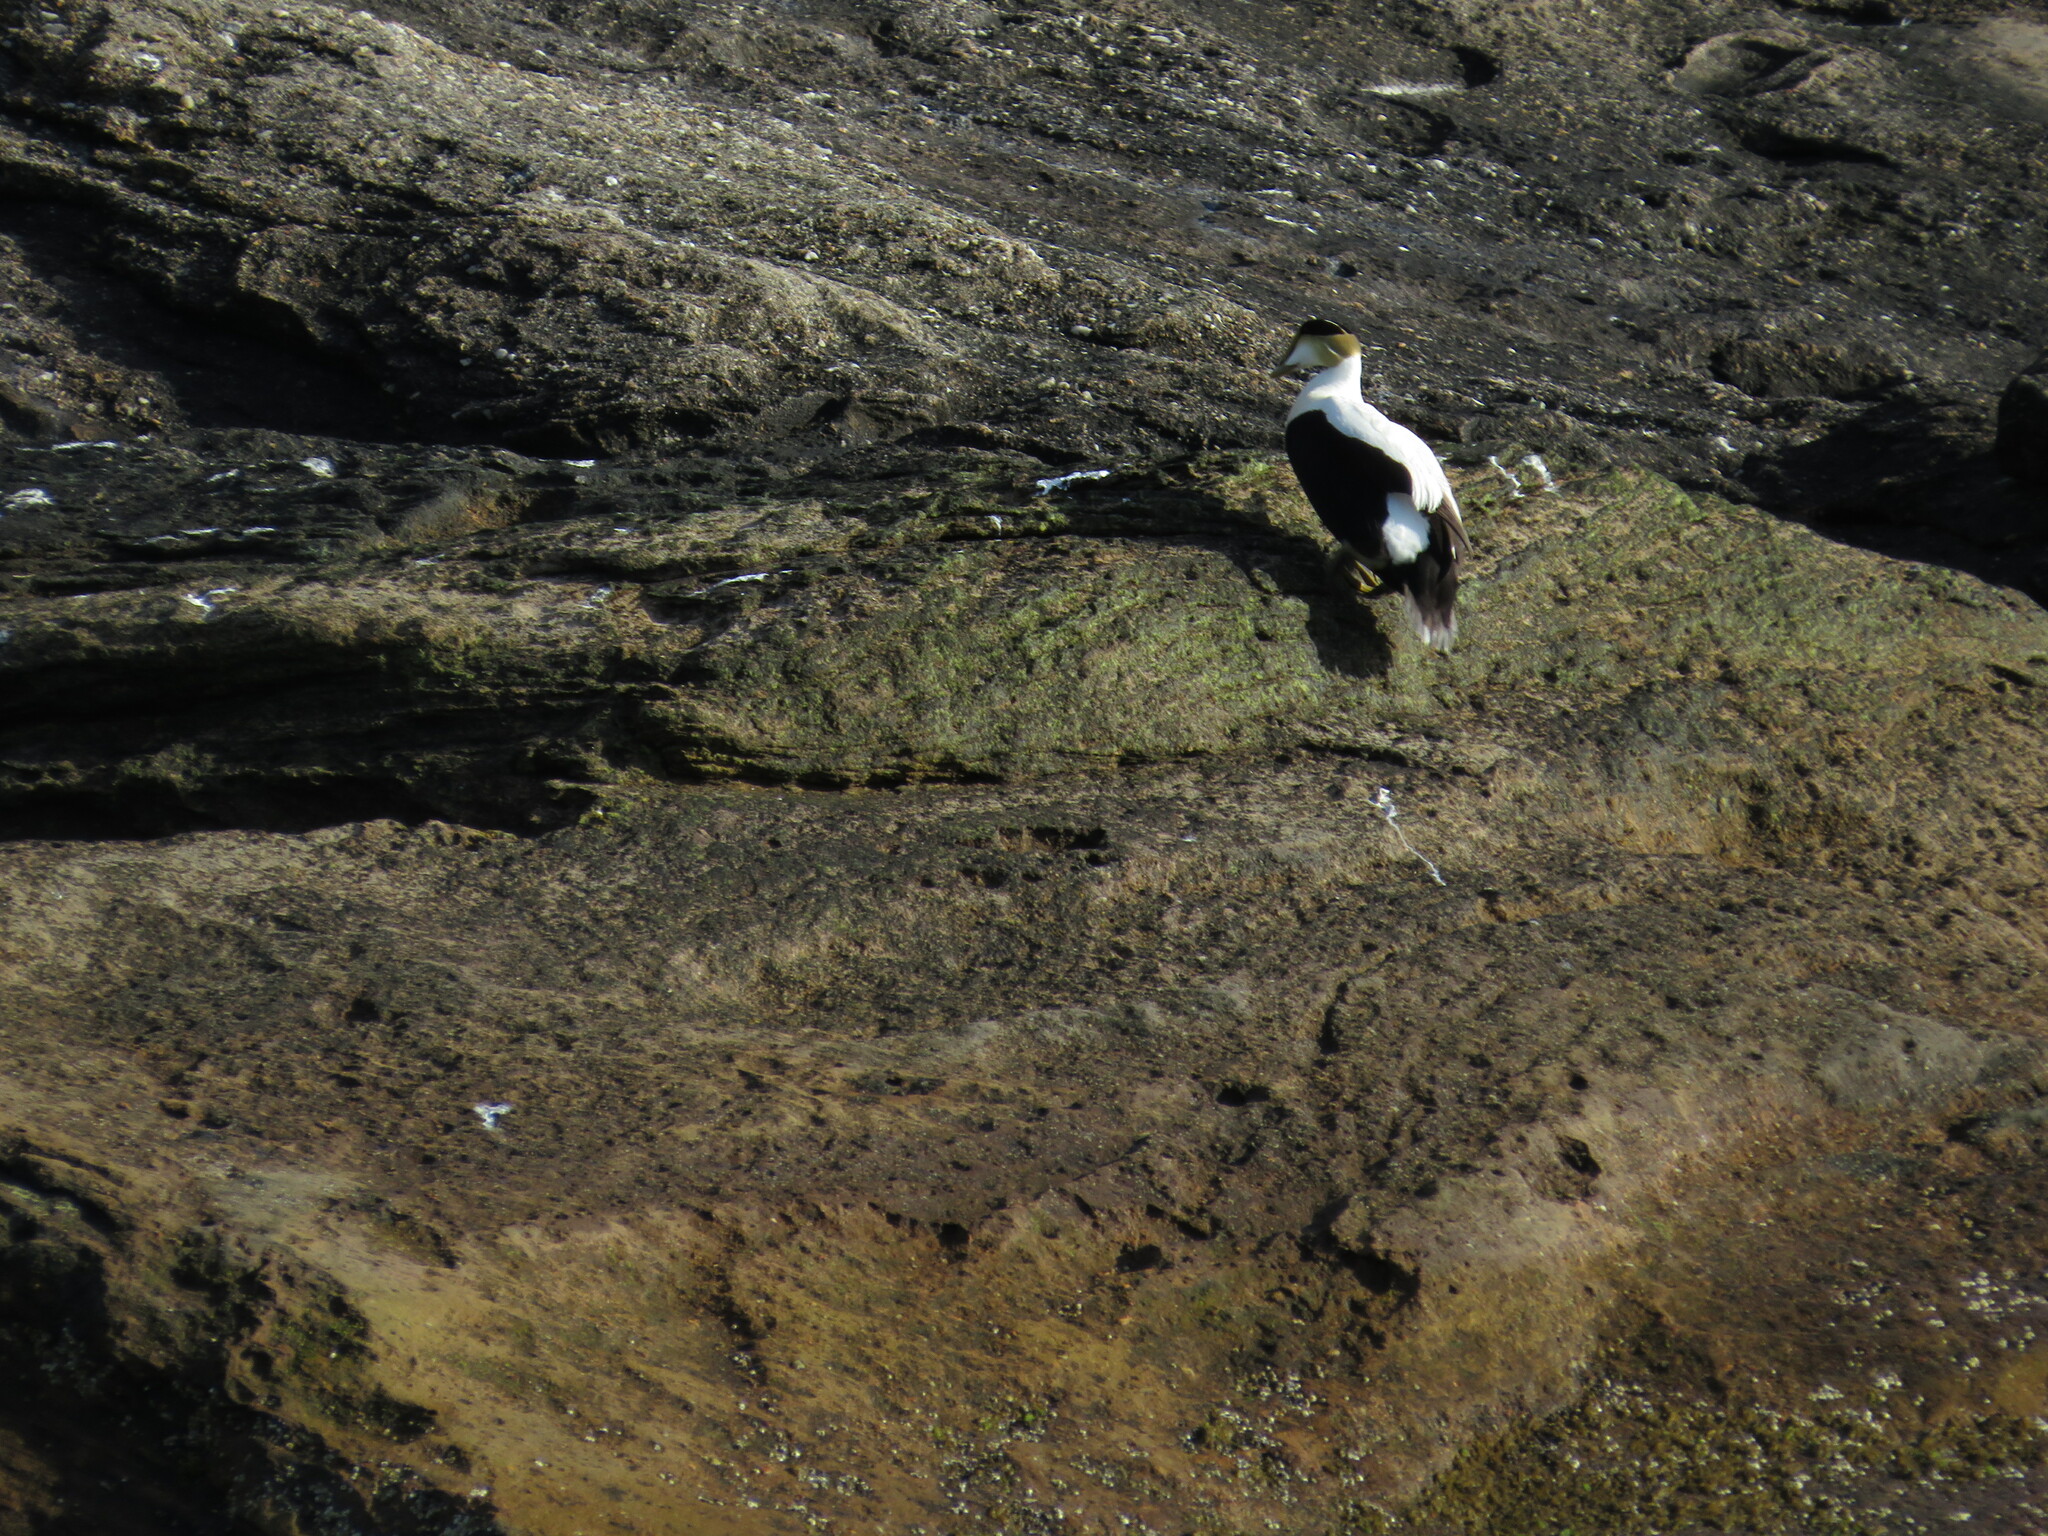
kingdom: Animalia
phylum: Chordata
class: Aves
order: Anseriformes
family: Anatidae
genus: Somateria
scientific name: Somateria mollissima
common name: Common eider
